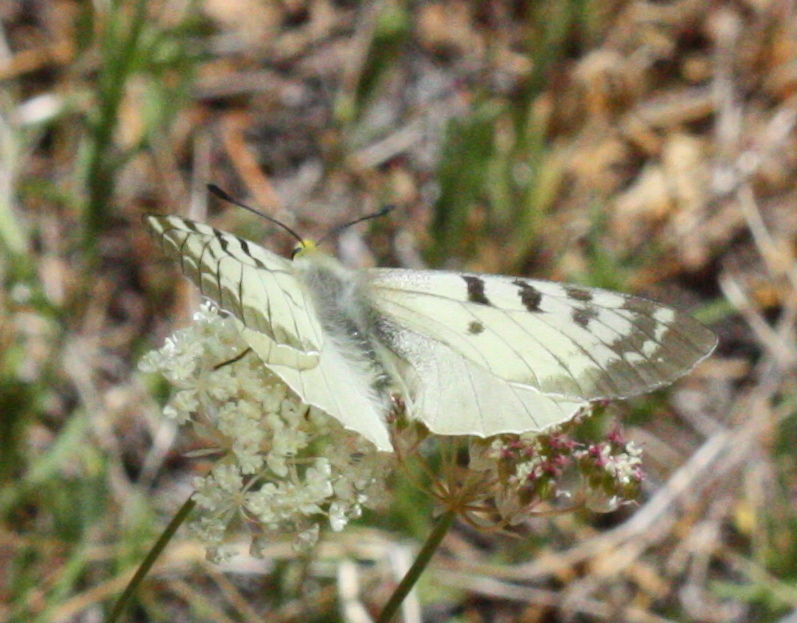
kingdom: Animalia
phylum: Arthropoda
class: Insecta
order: Lepidoptera
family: Papilionidae
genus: Parnassius
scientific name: Parnassius clodius
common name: American apollo
